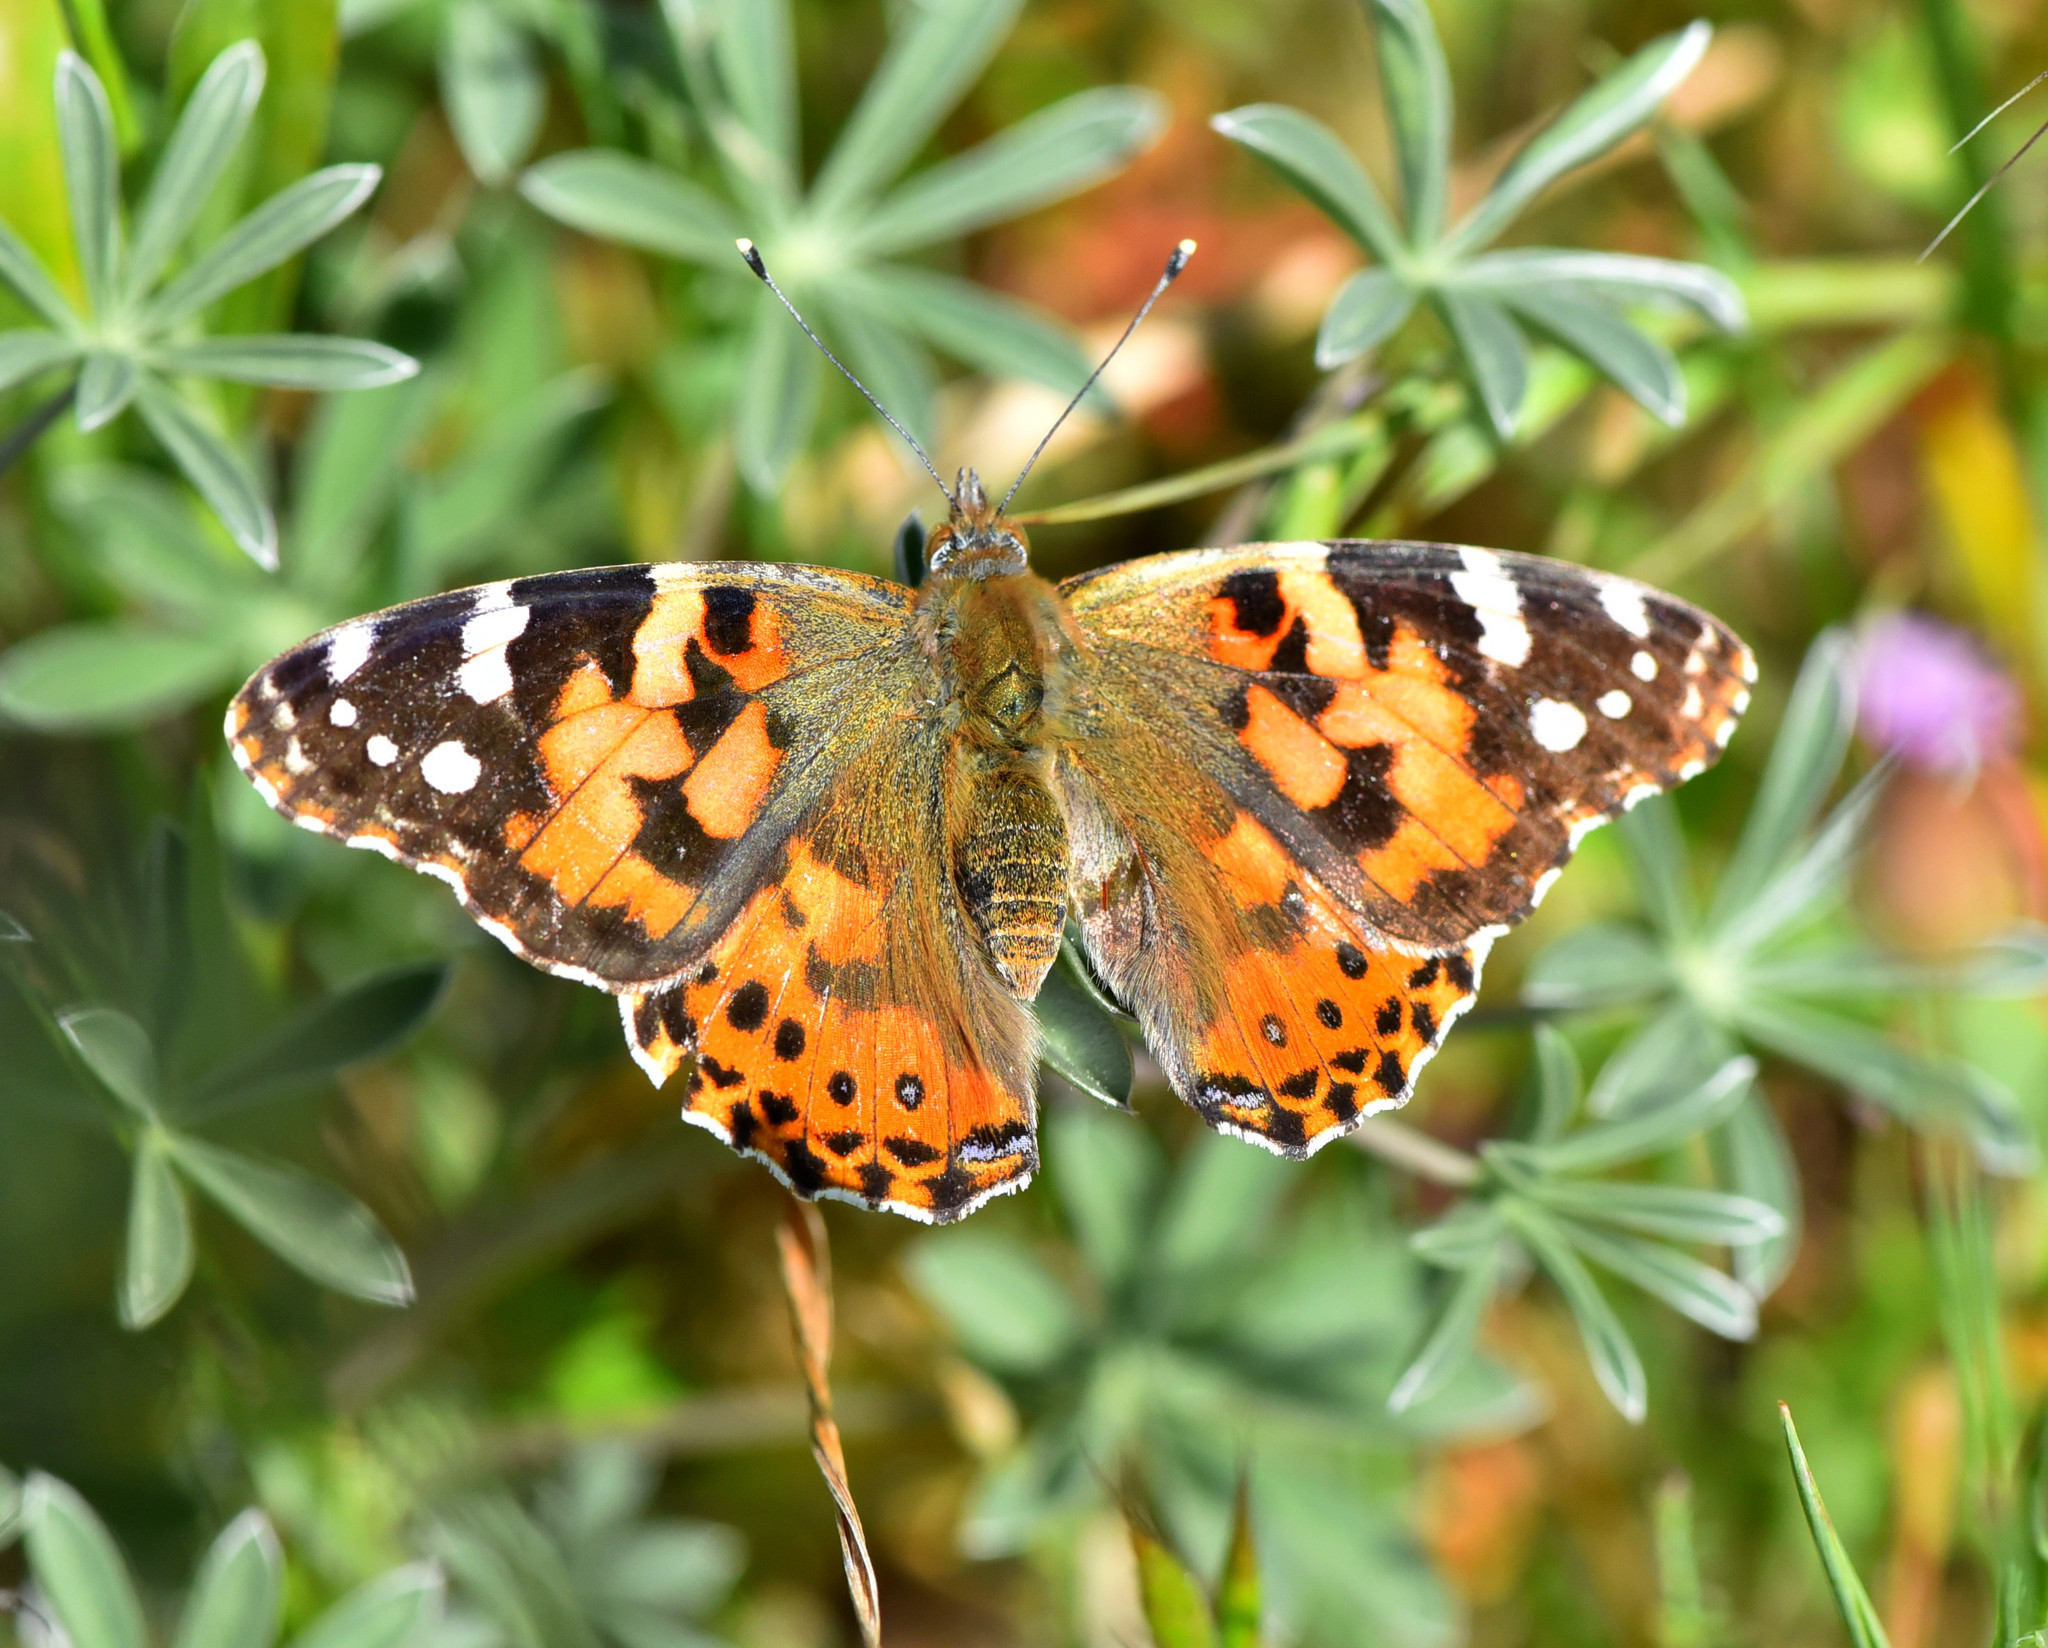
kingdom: Animalia
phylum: Arthropoda
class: Insecta
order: Lepidoptera
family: Nymphalidae
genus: Vanessa
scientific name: Vanessa cardui
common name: Painted lady
